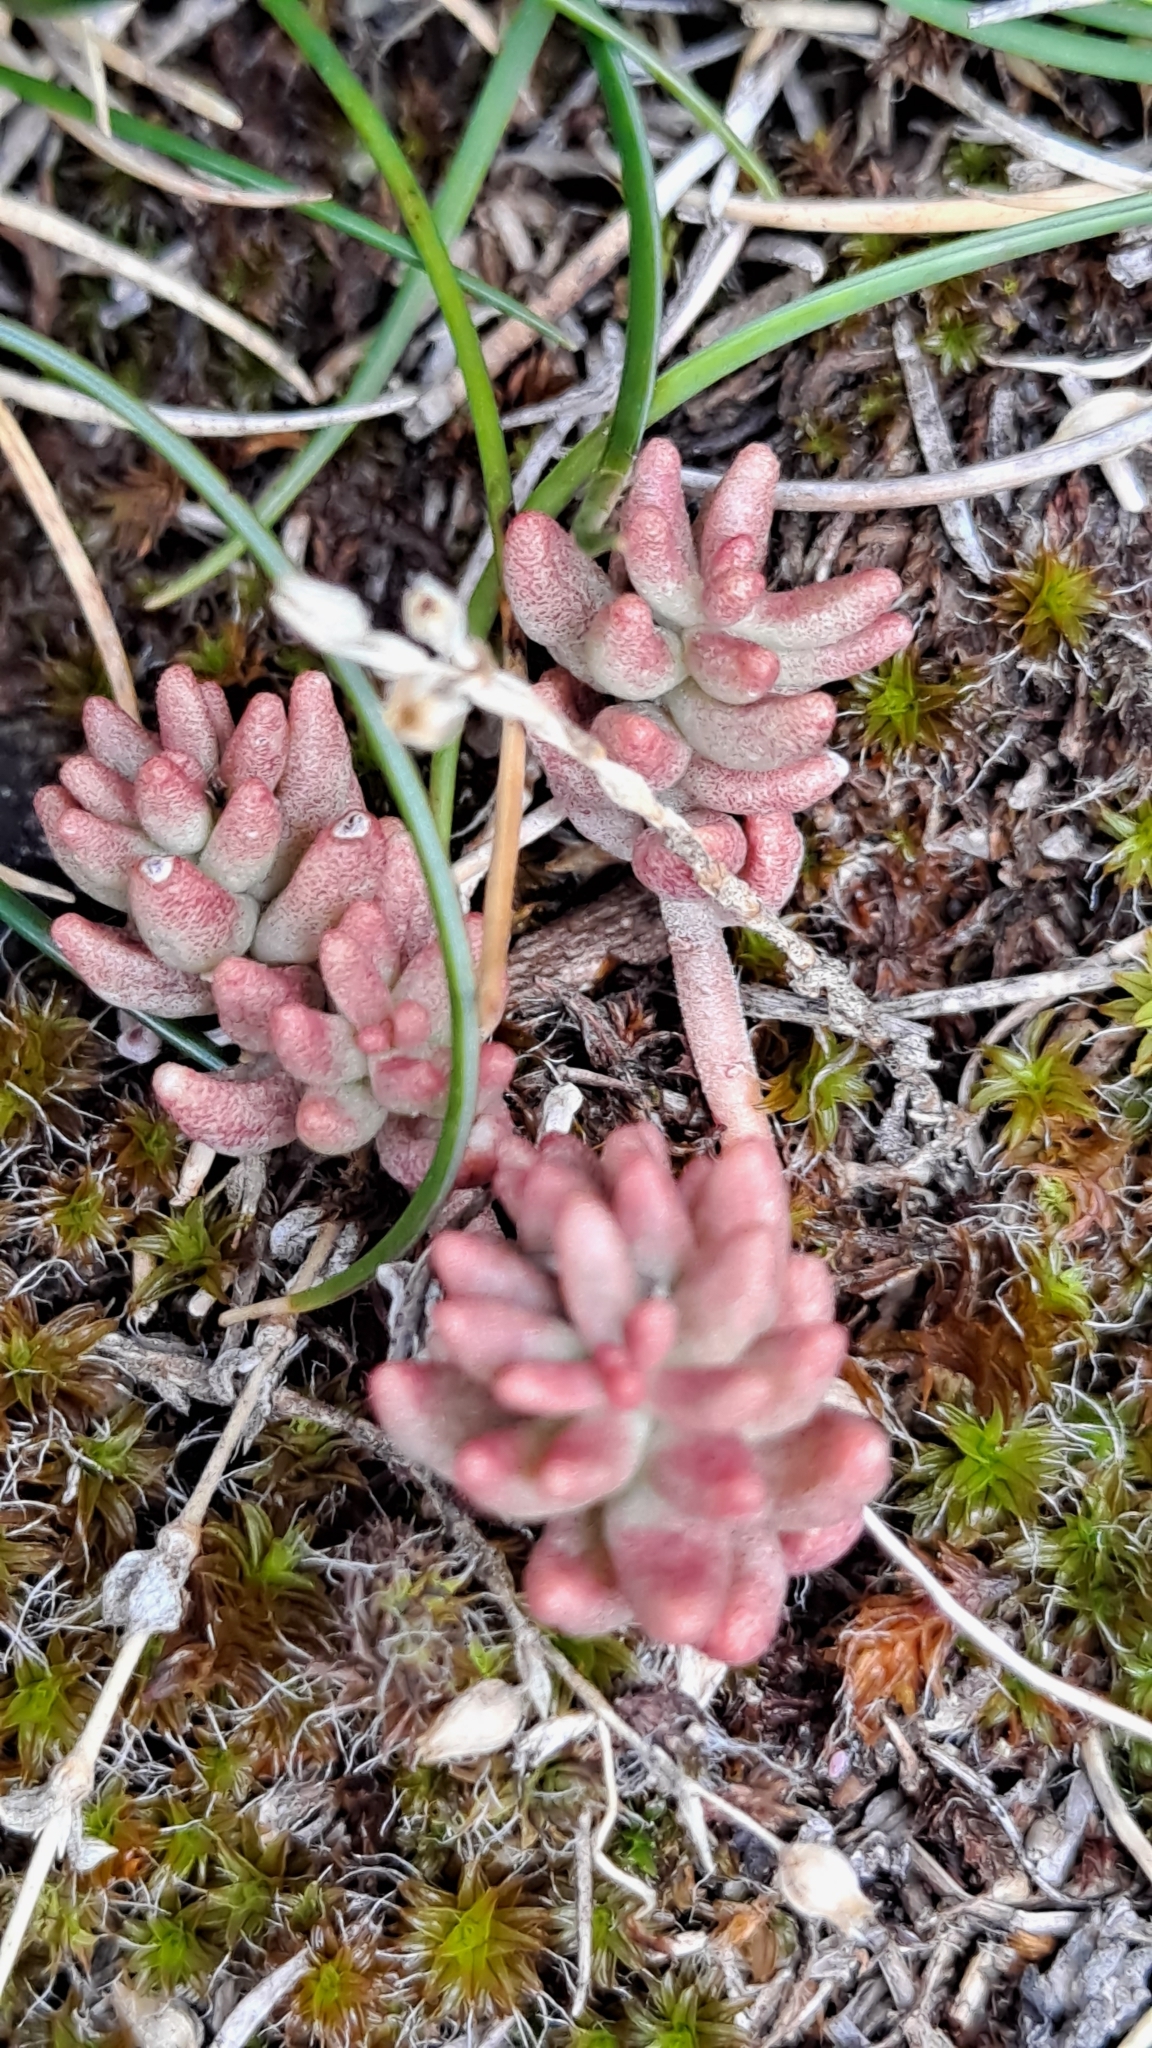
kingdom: Plantae
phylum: Tracheophyta
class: Magnoliopsida
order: Saxifragales
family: Crassulaceae
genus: Sedum
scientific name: Sedum album
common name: White stonecrop
